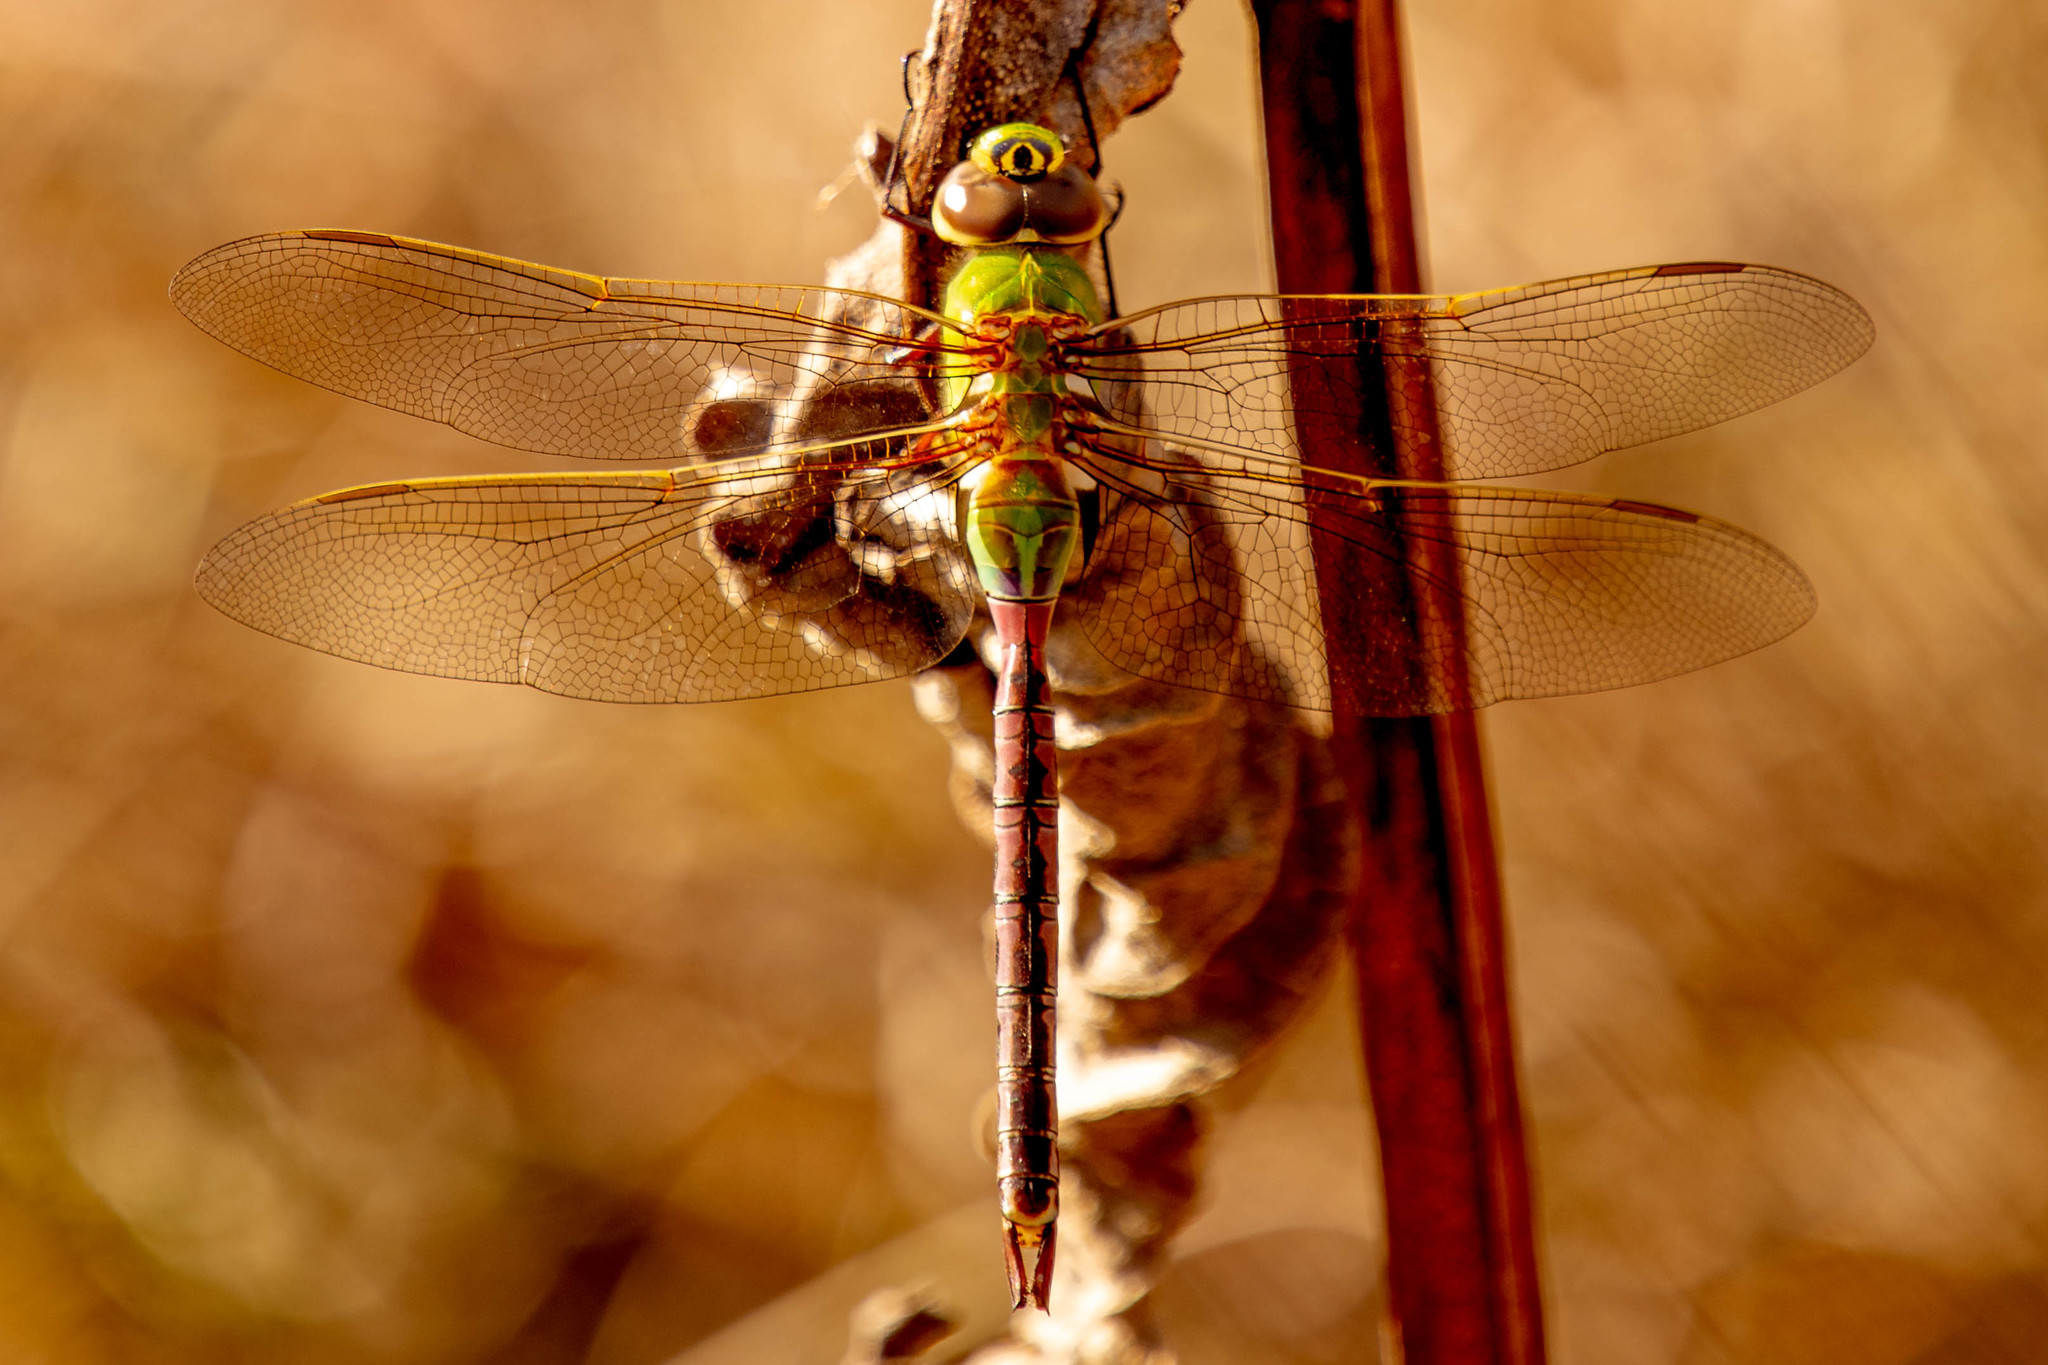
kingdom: Animalia
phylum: Arthropoda
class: Insecta
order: Odonata
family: Aeshnidae
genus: Anax
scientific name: Anax junius
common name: Common green darner
